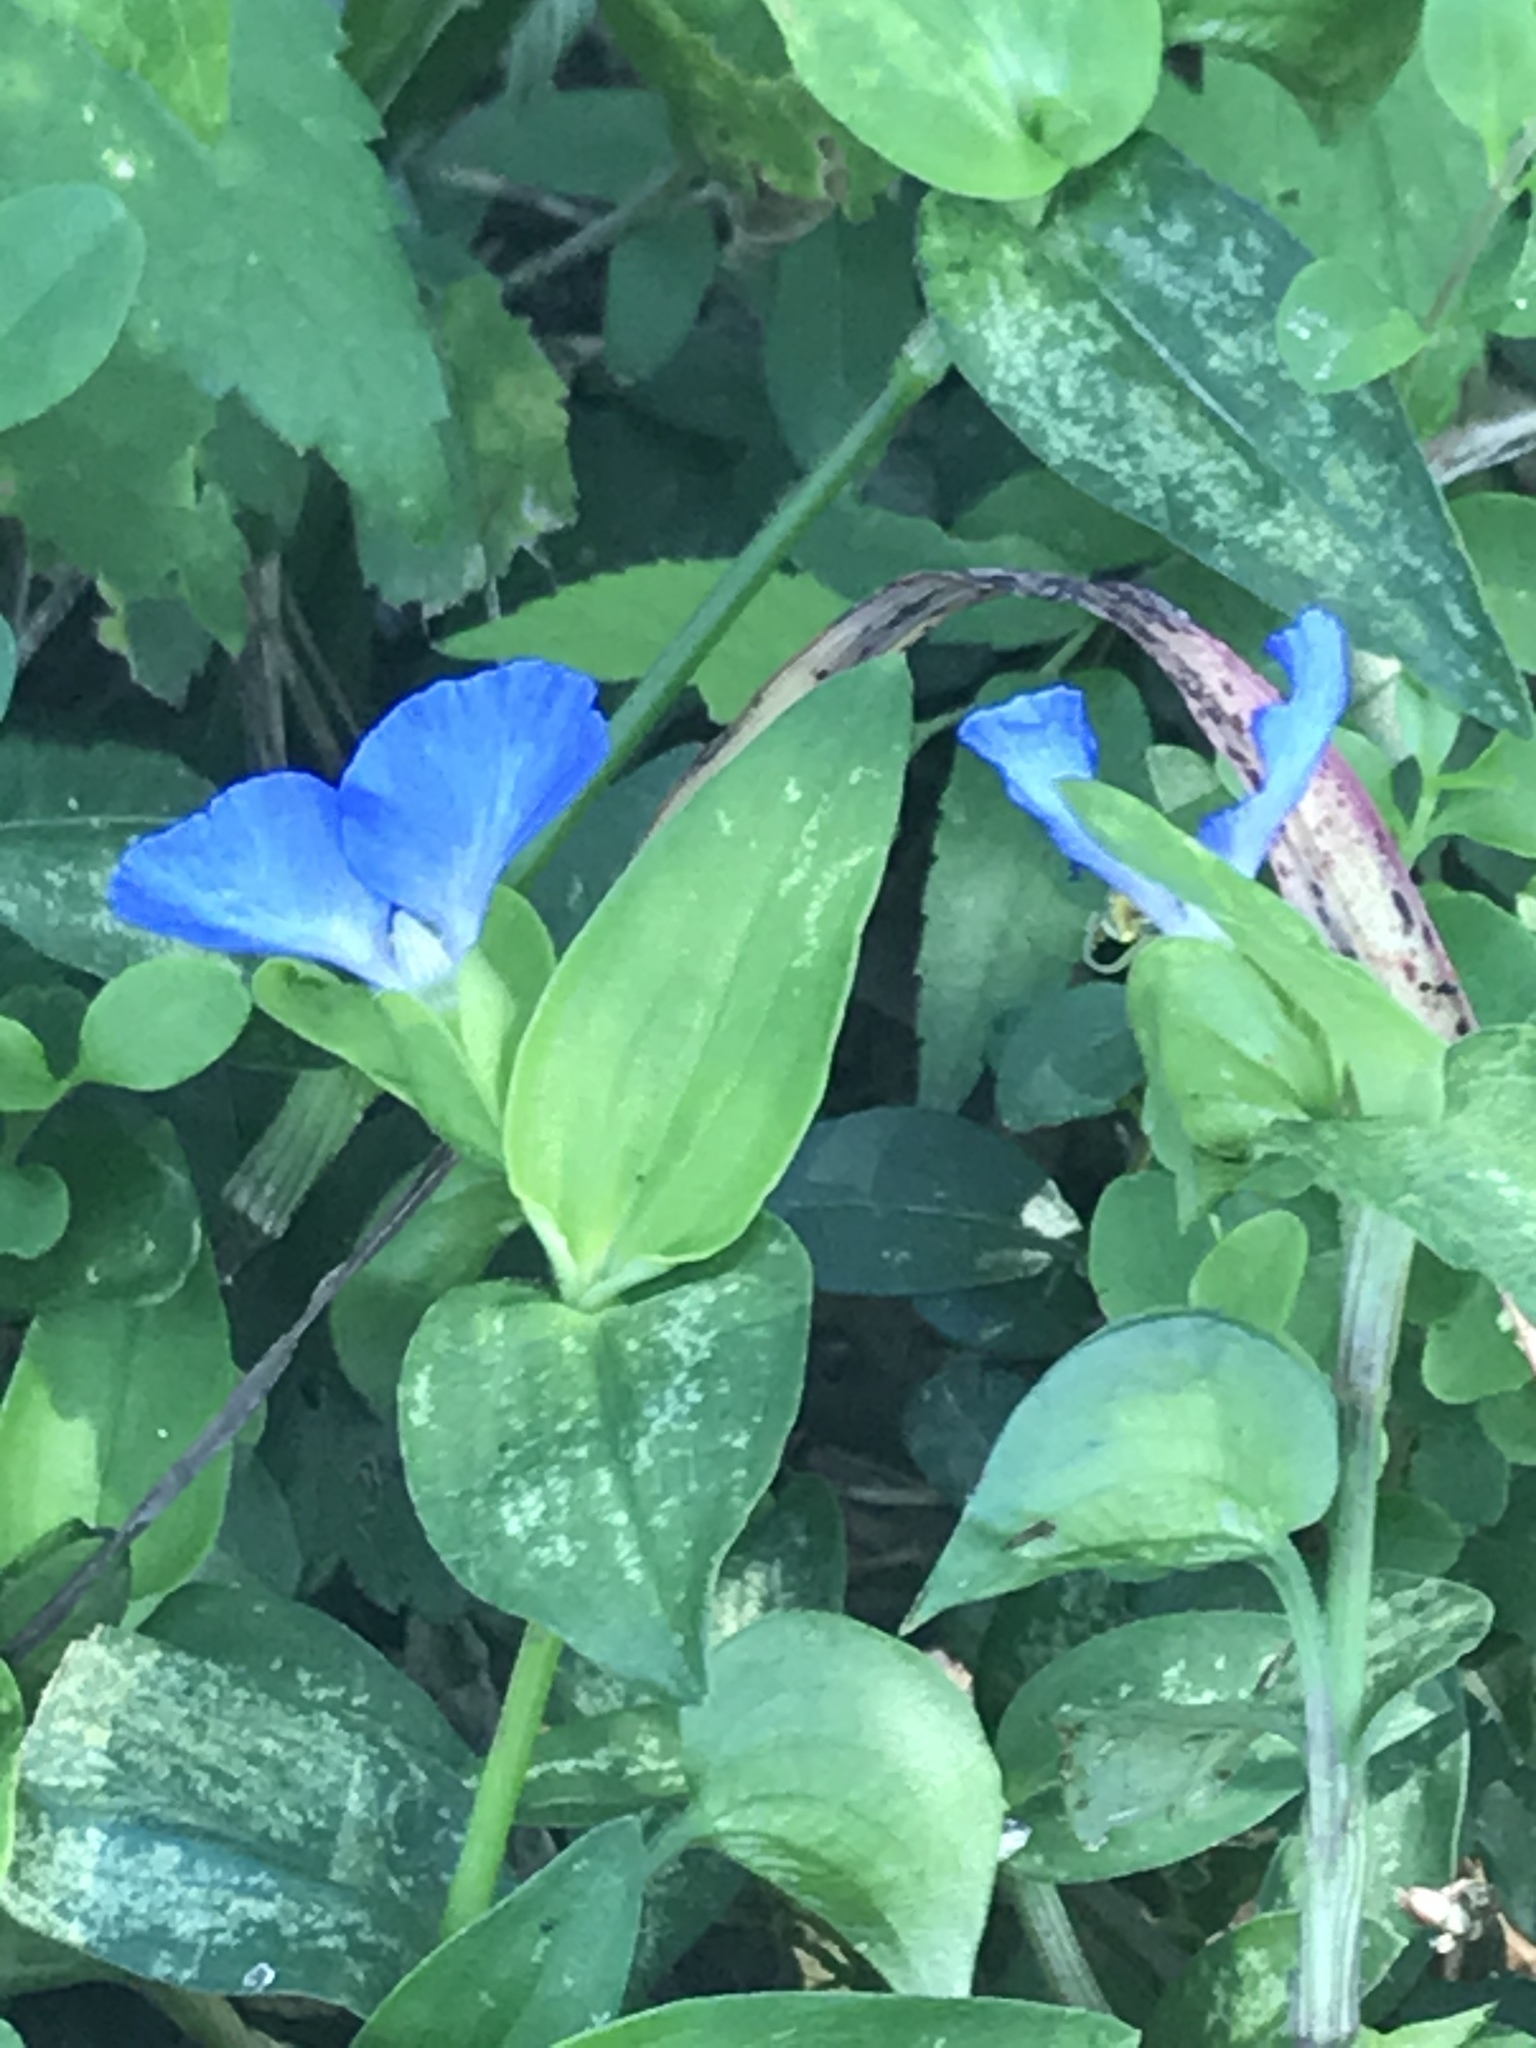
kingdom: Plantae
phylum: Tracheophyta
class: Liliopsida
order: Commelinales
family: Commelinaceae
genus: Commelina
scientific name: Commelina communis
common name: Asiatic dayflower
